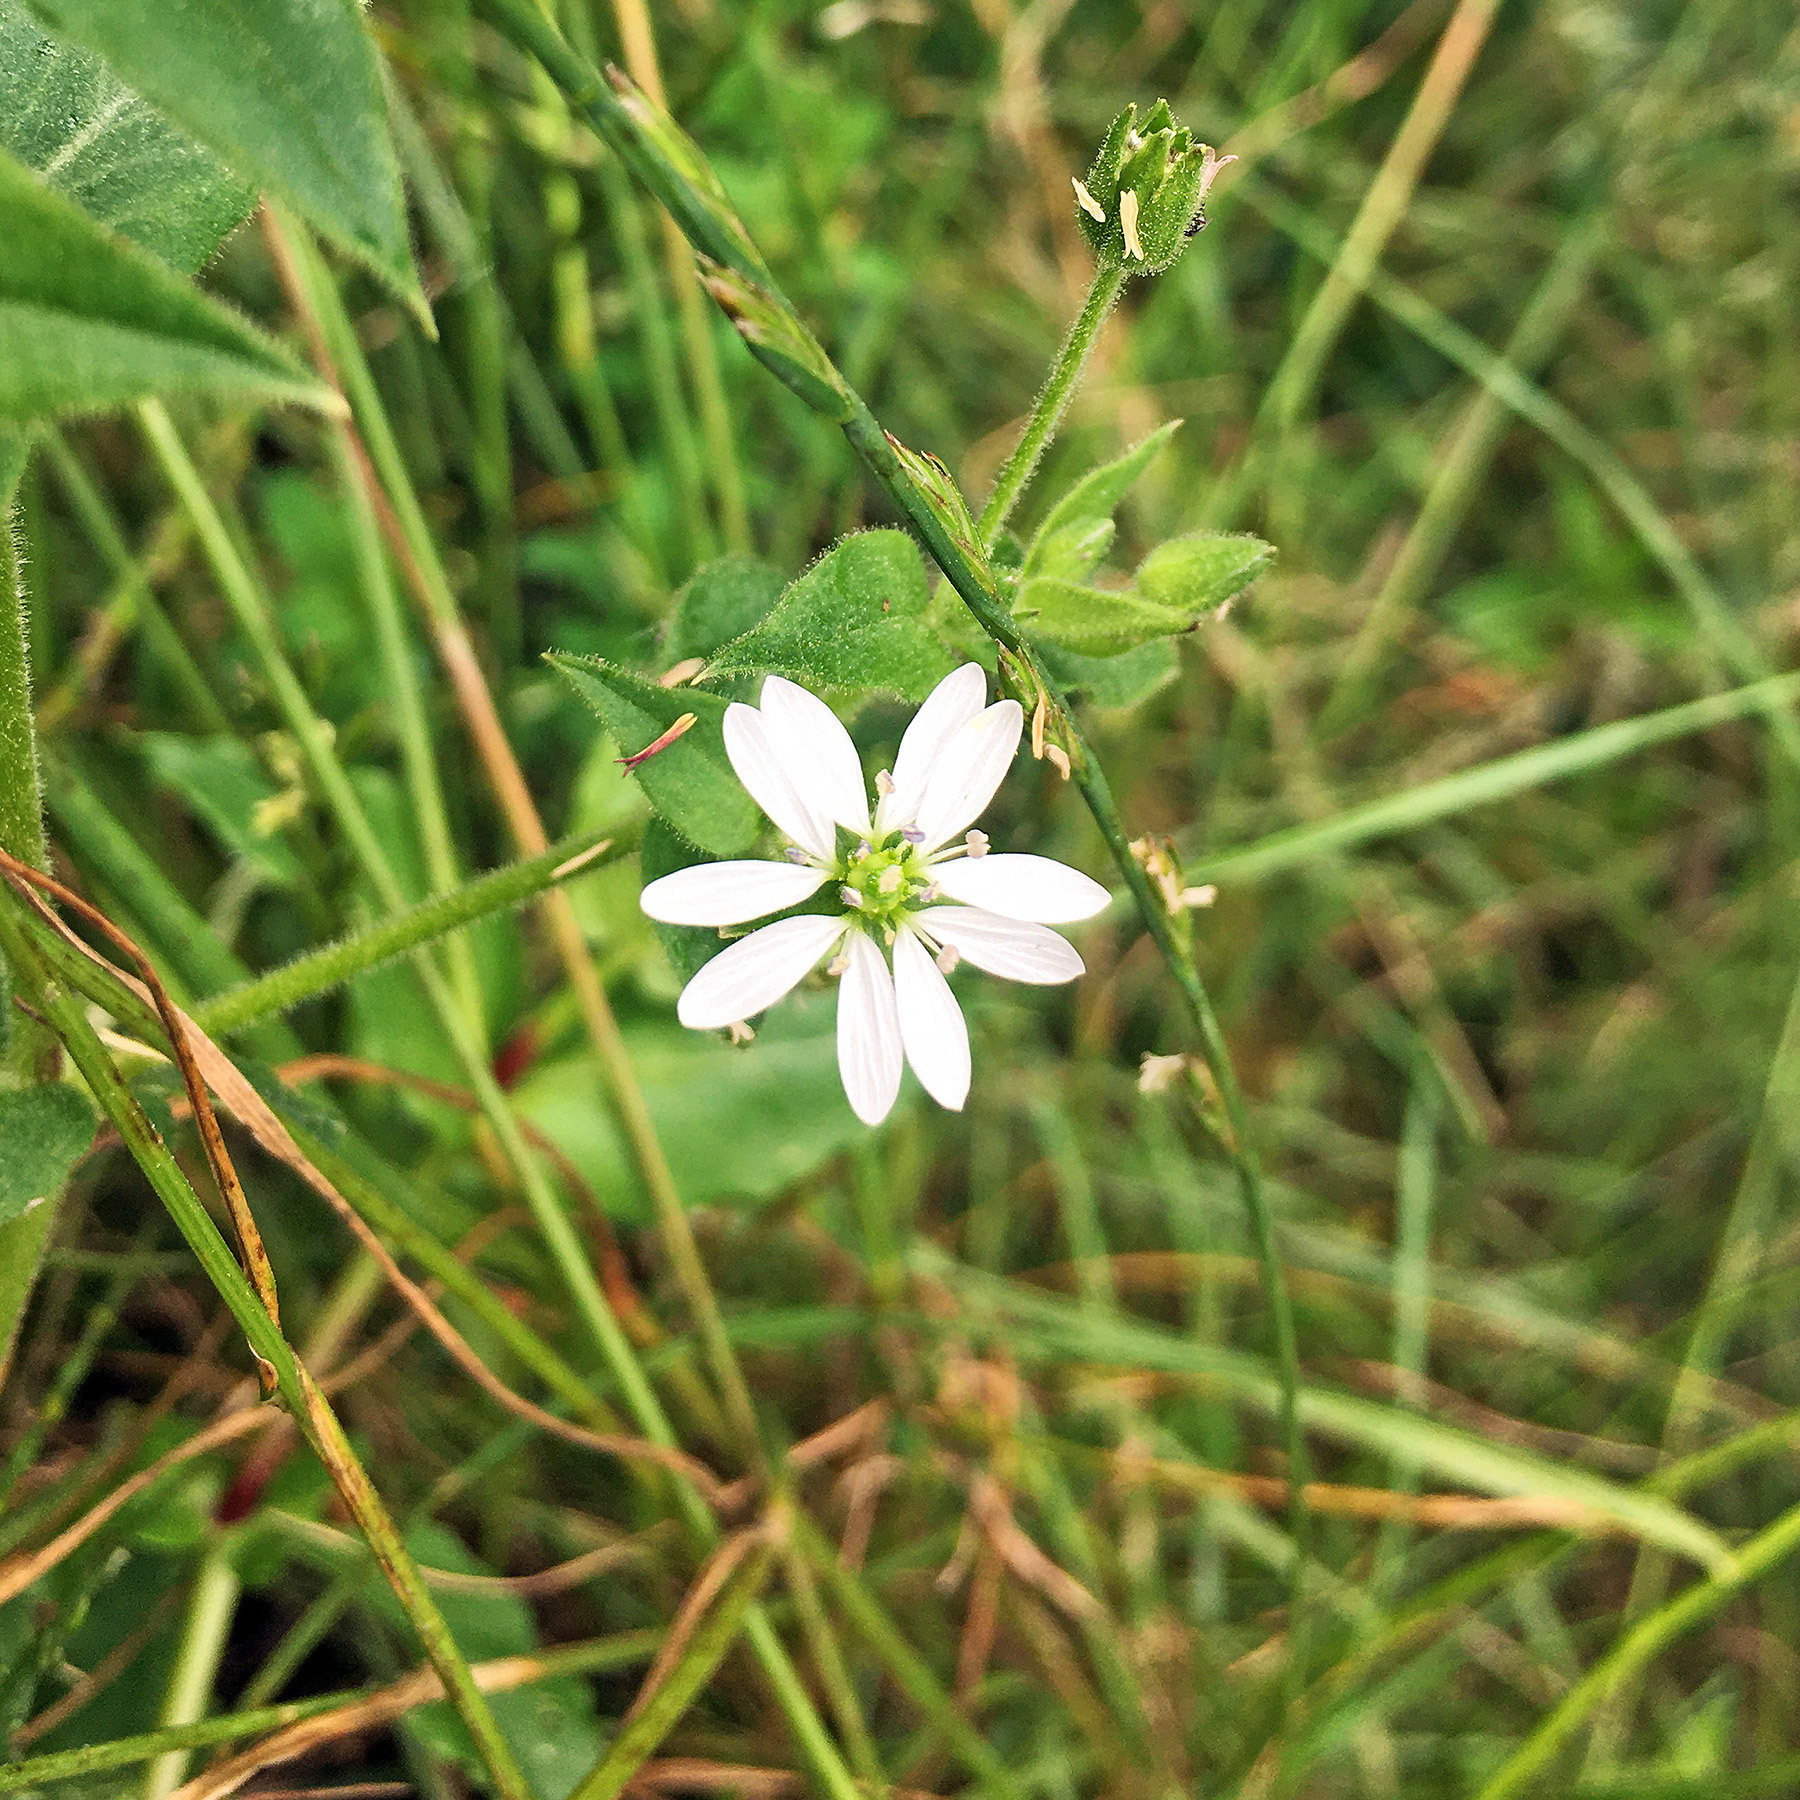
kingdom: Plantae
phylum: Tracheophyta
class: Magnoliopsida
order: Caryophyllales
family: Caryophyllaceae
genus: Stellaria
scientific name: Stellaria aquatica
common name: Water chickweed
